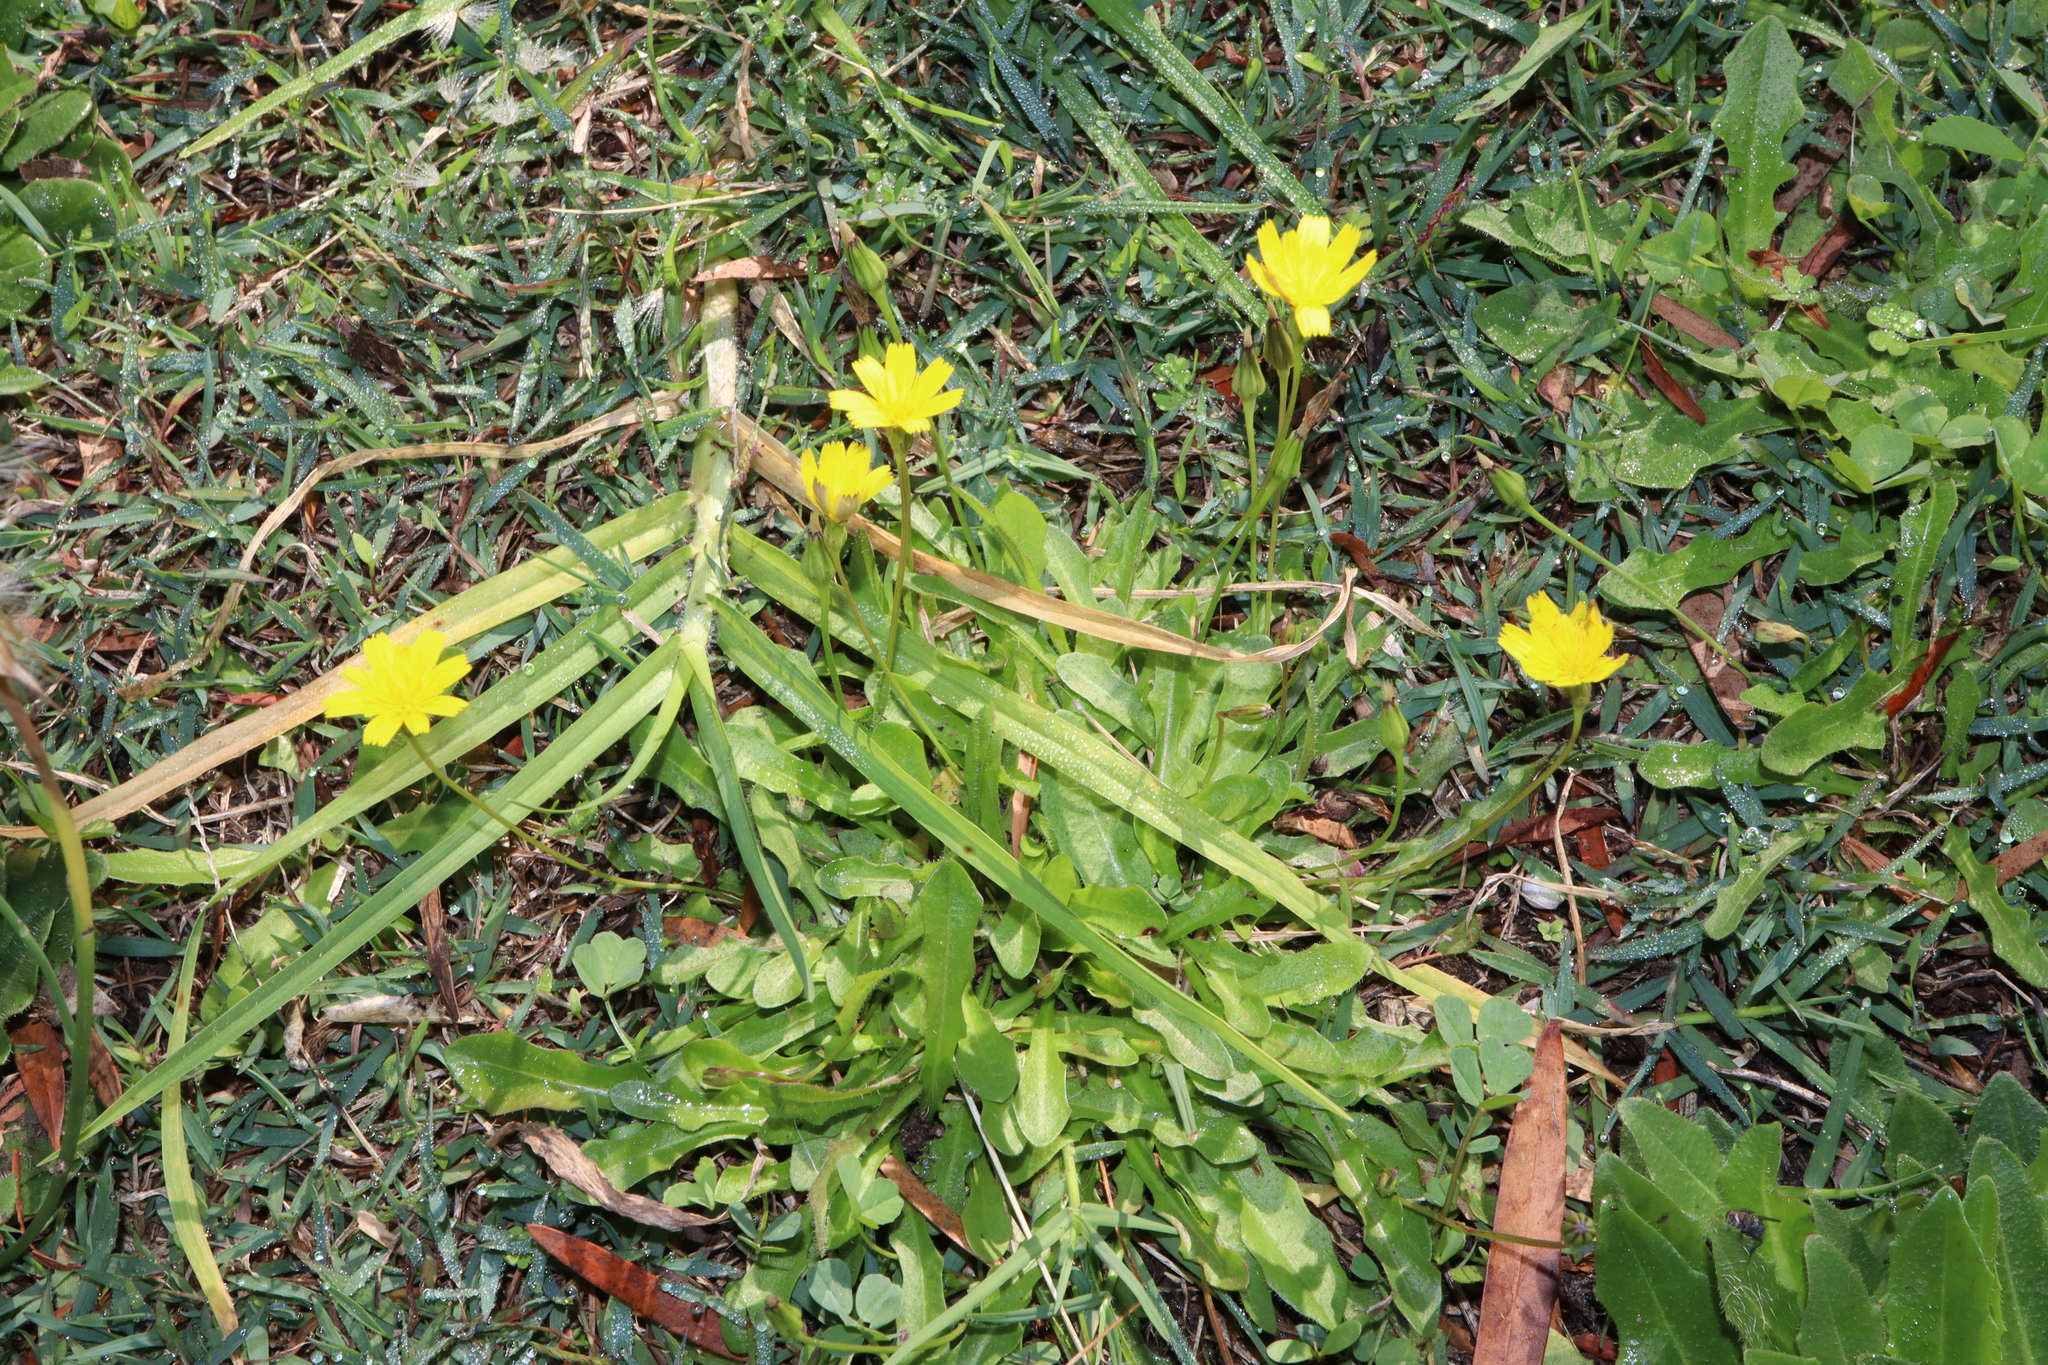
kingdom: Plantae
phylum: Tracheophyta
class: Magnoliopsida
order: Asterales
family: Asteraceae
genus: Hypochaeris
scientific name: Hypochaeris radicata
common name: Flatweed
